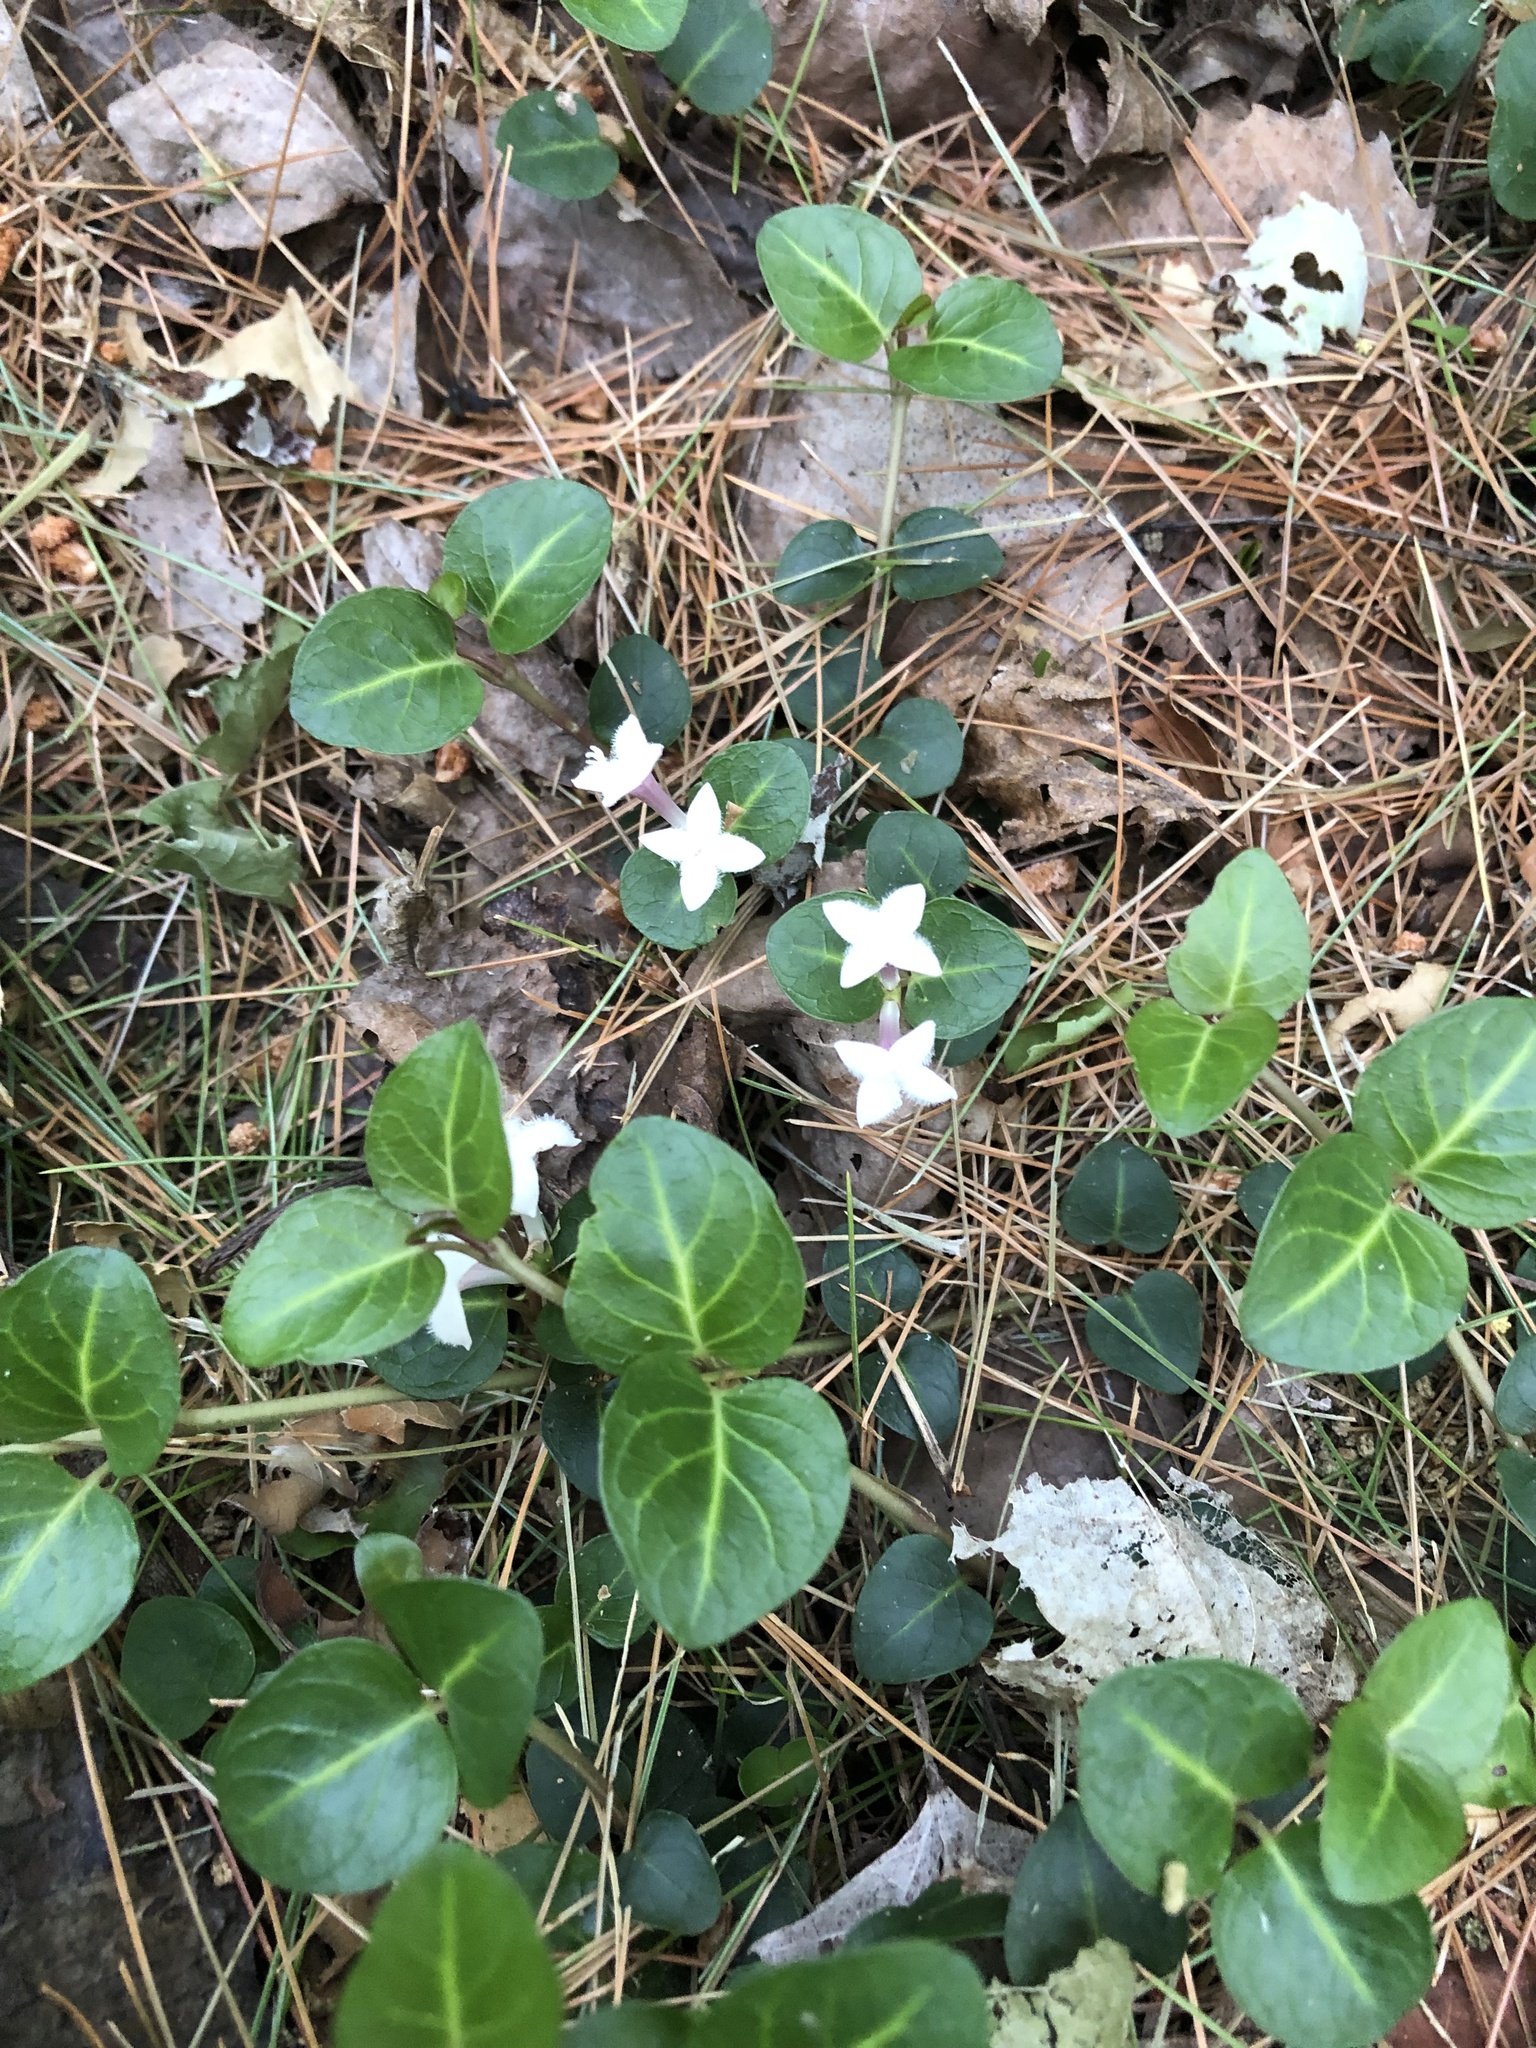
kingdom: Plantae
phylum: Tracheophyta
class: Magnoliopsida
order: Gentianales
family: Rubiaceae
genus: Mitchella
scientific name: Mitchella repens
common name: Partridge-berry
